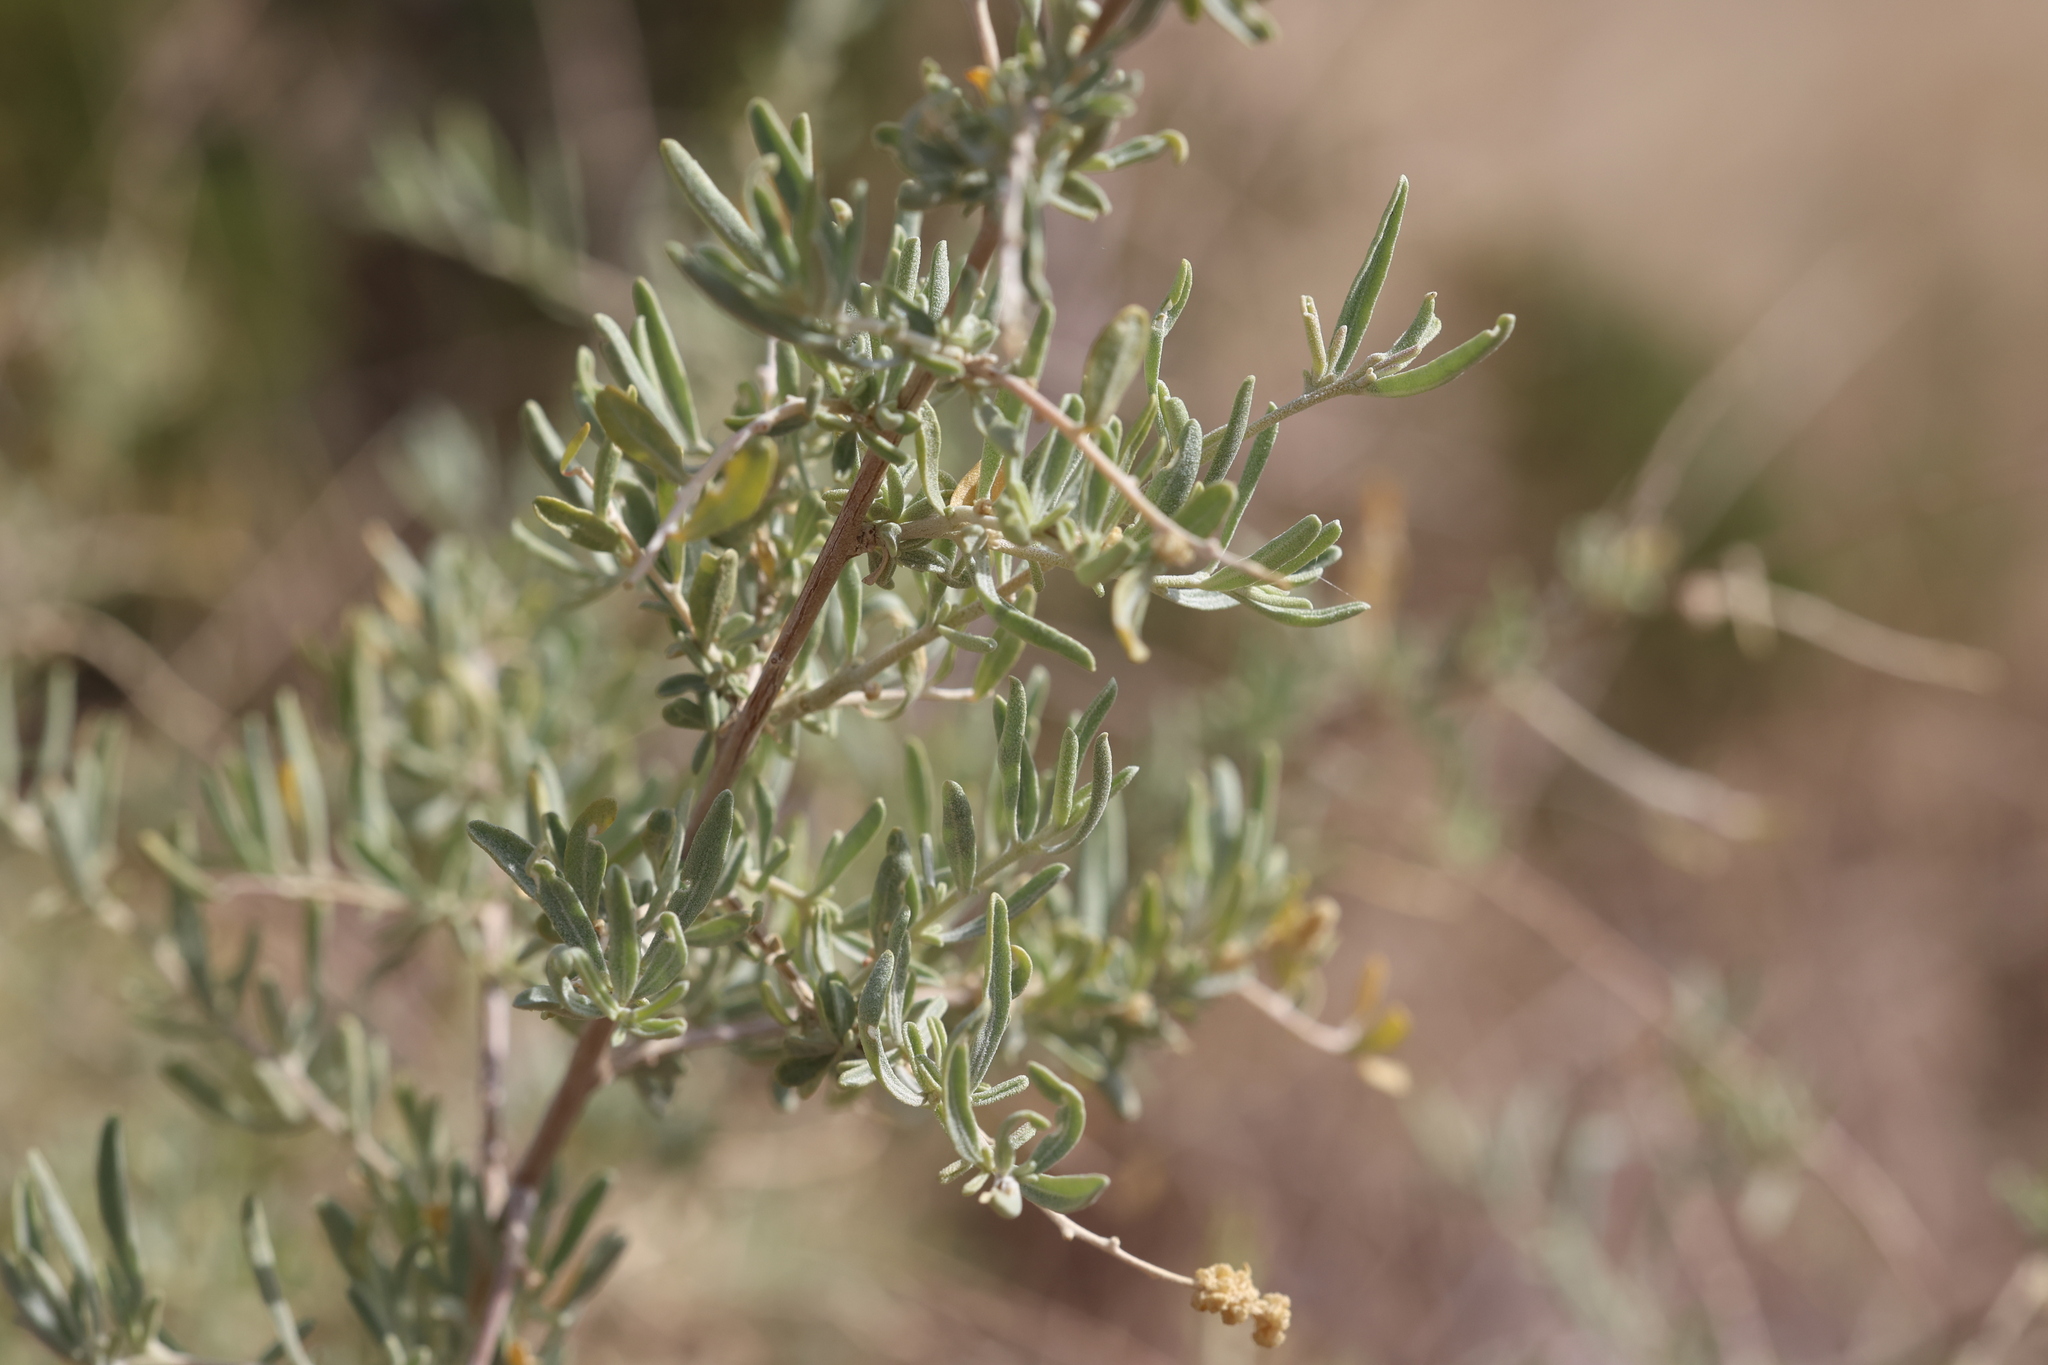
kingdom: Plantae
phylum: Tracheophyta
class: Magnoliopsida
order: Caryophyllales
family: Amaranthaceae
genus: Atriplex
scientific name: Atriplex canescens
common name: Four-wing saltbush
